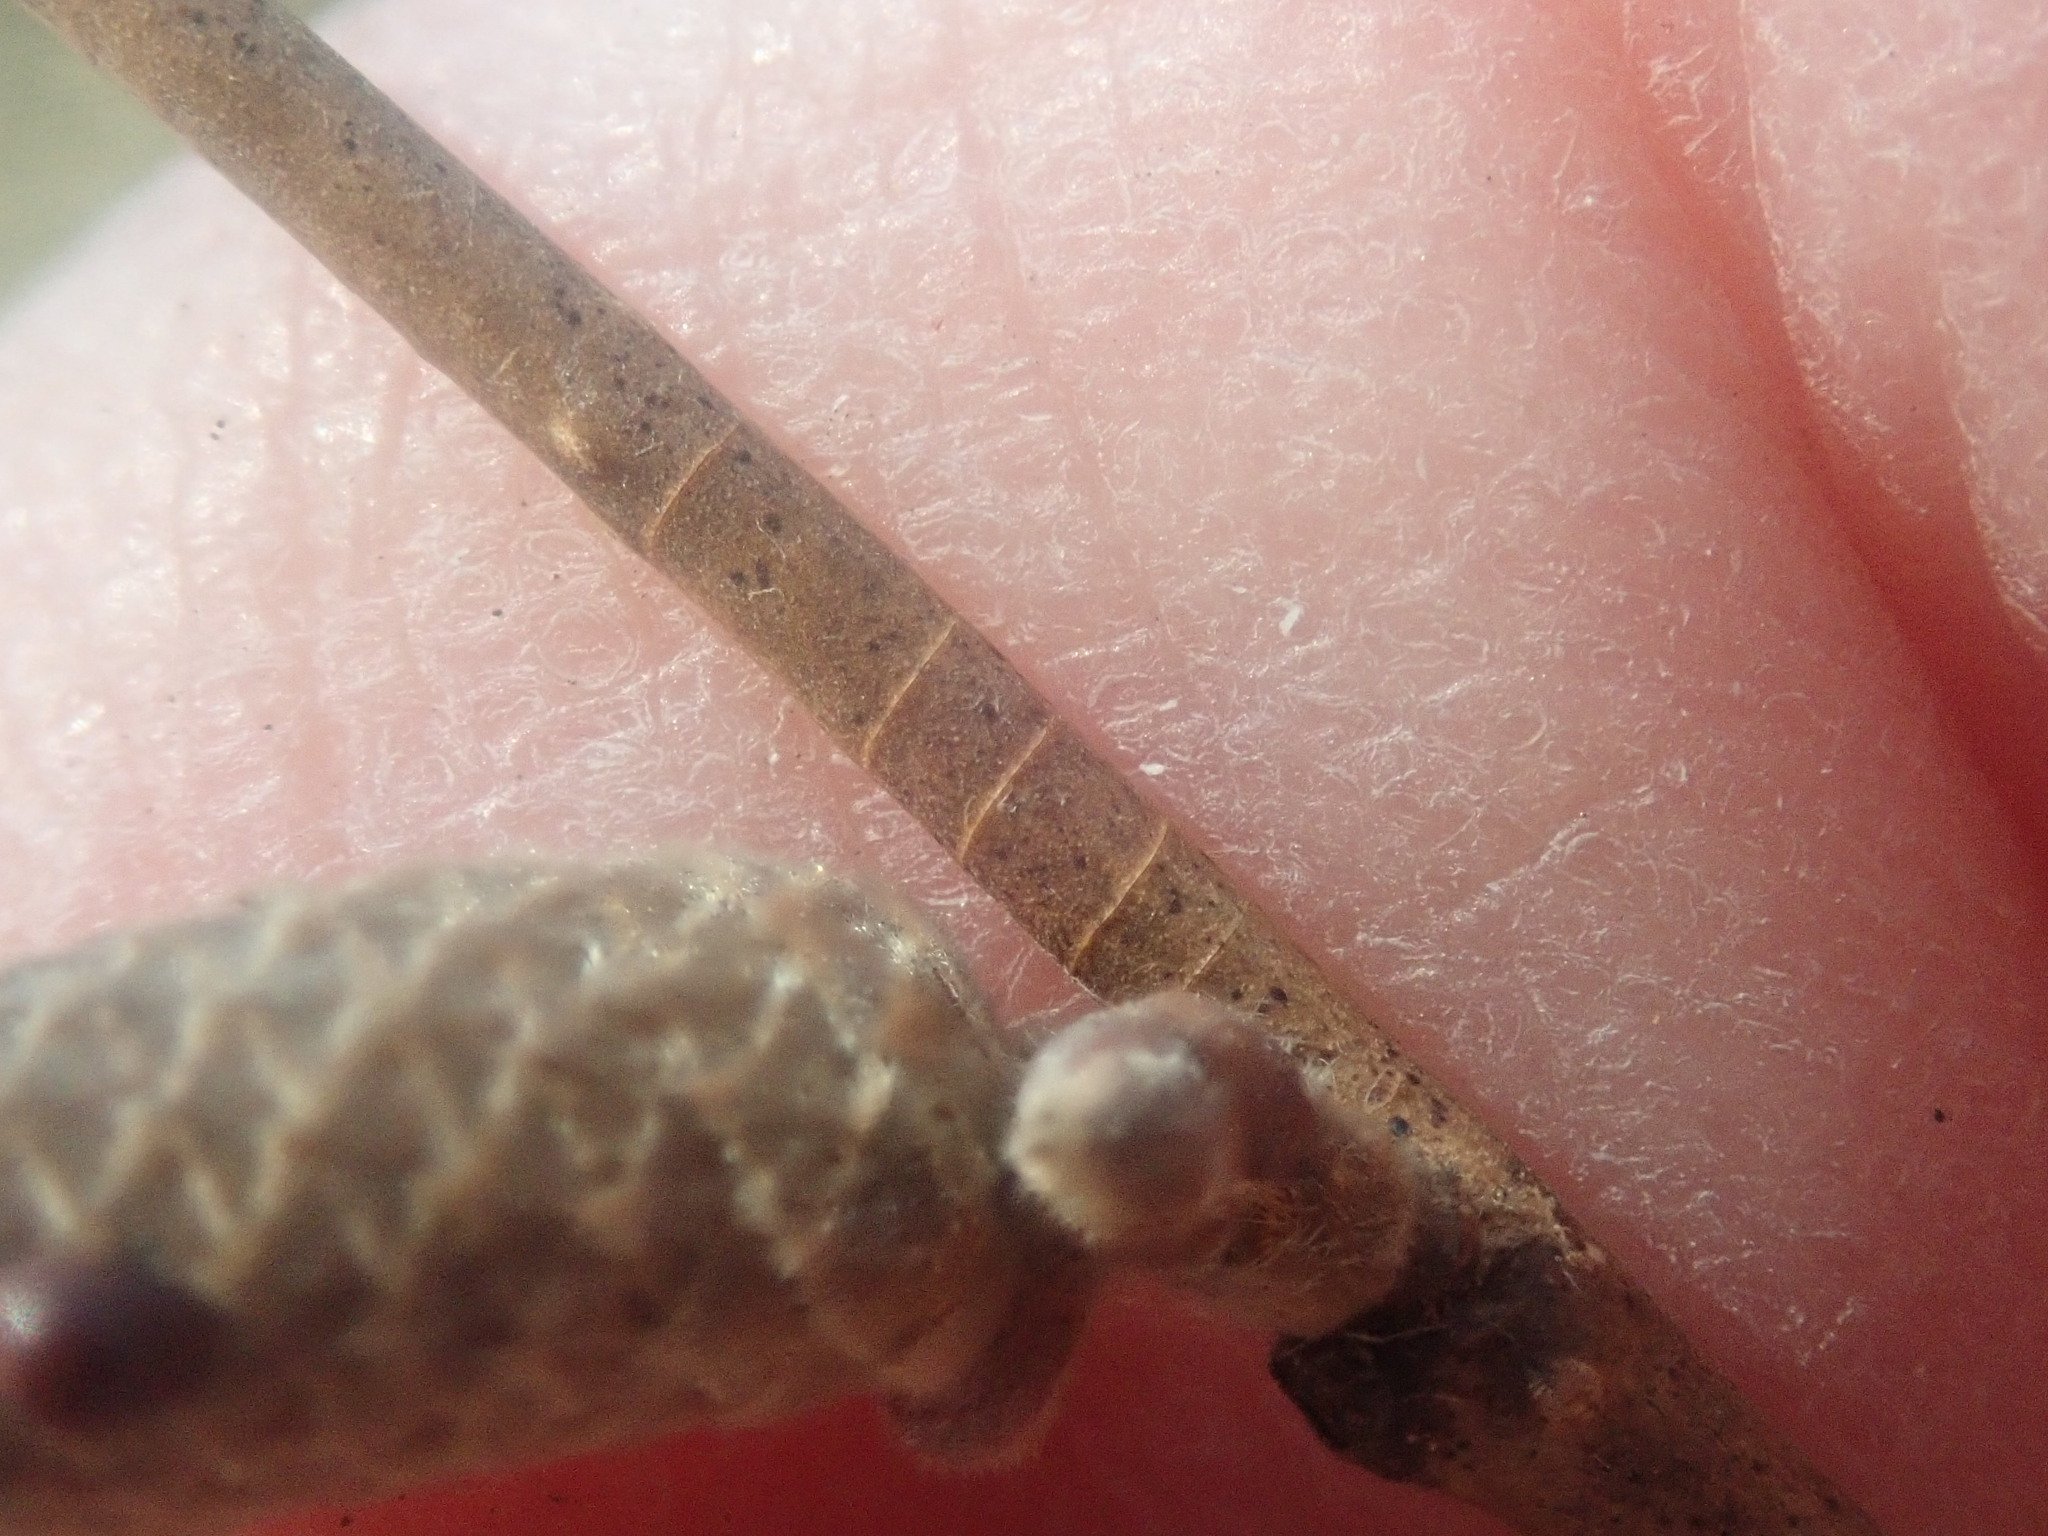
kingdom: Plantae
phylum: Tracheophyta
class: Magnoliopsida
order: Fagales
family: Betulaceae
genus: Corylus
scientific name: Corylus cornuta
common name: Beaked hazel
